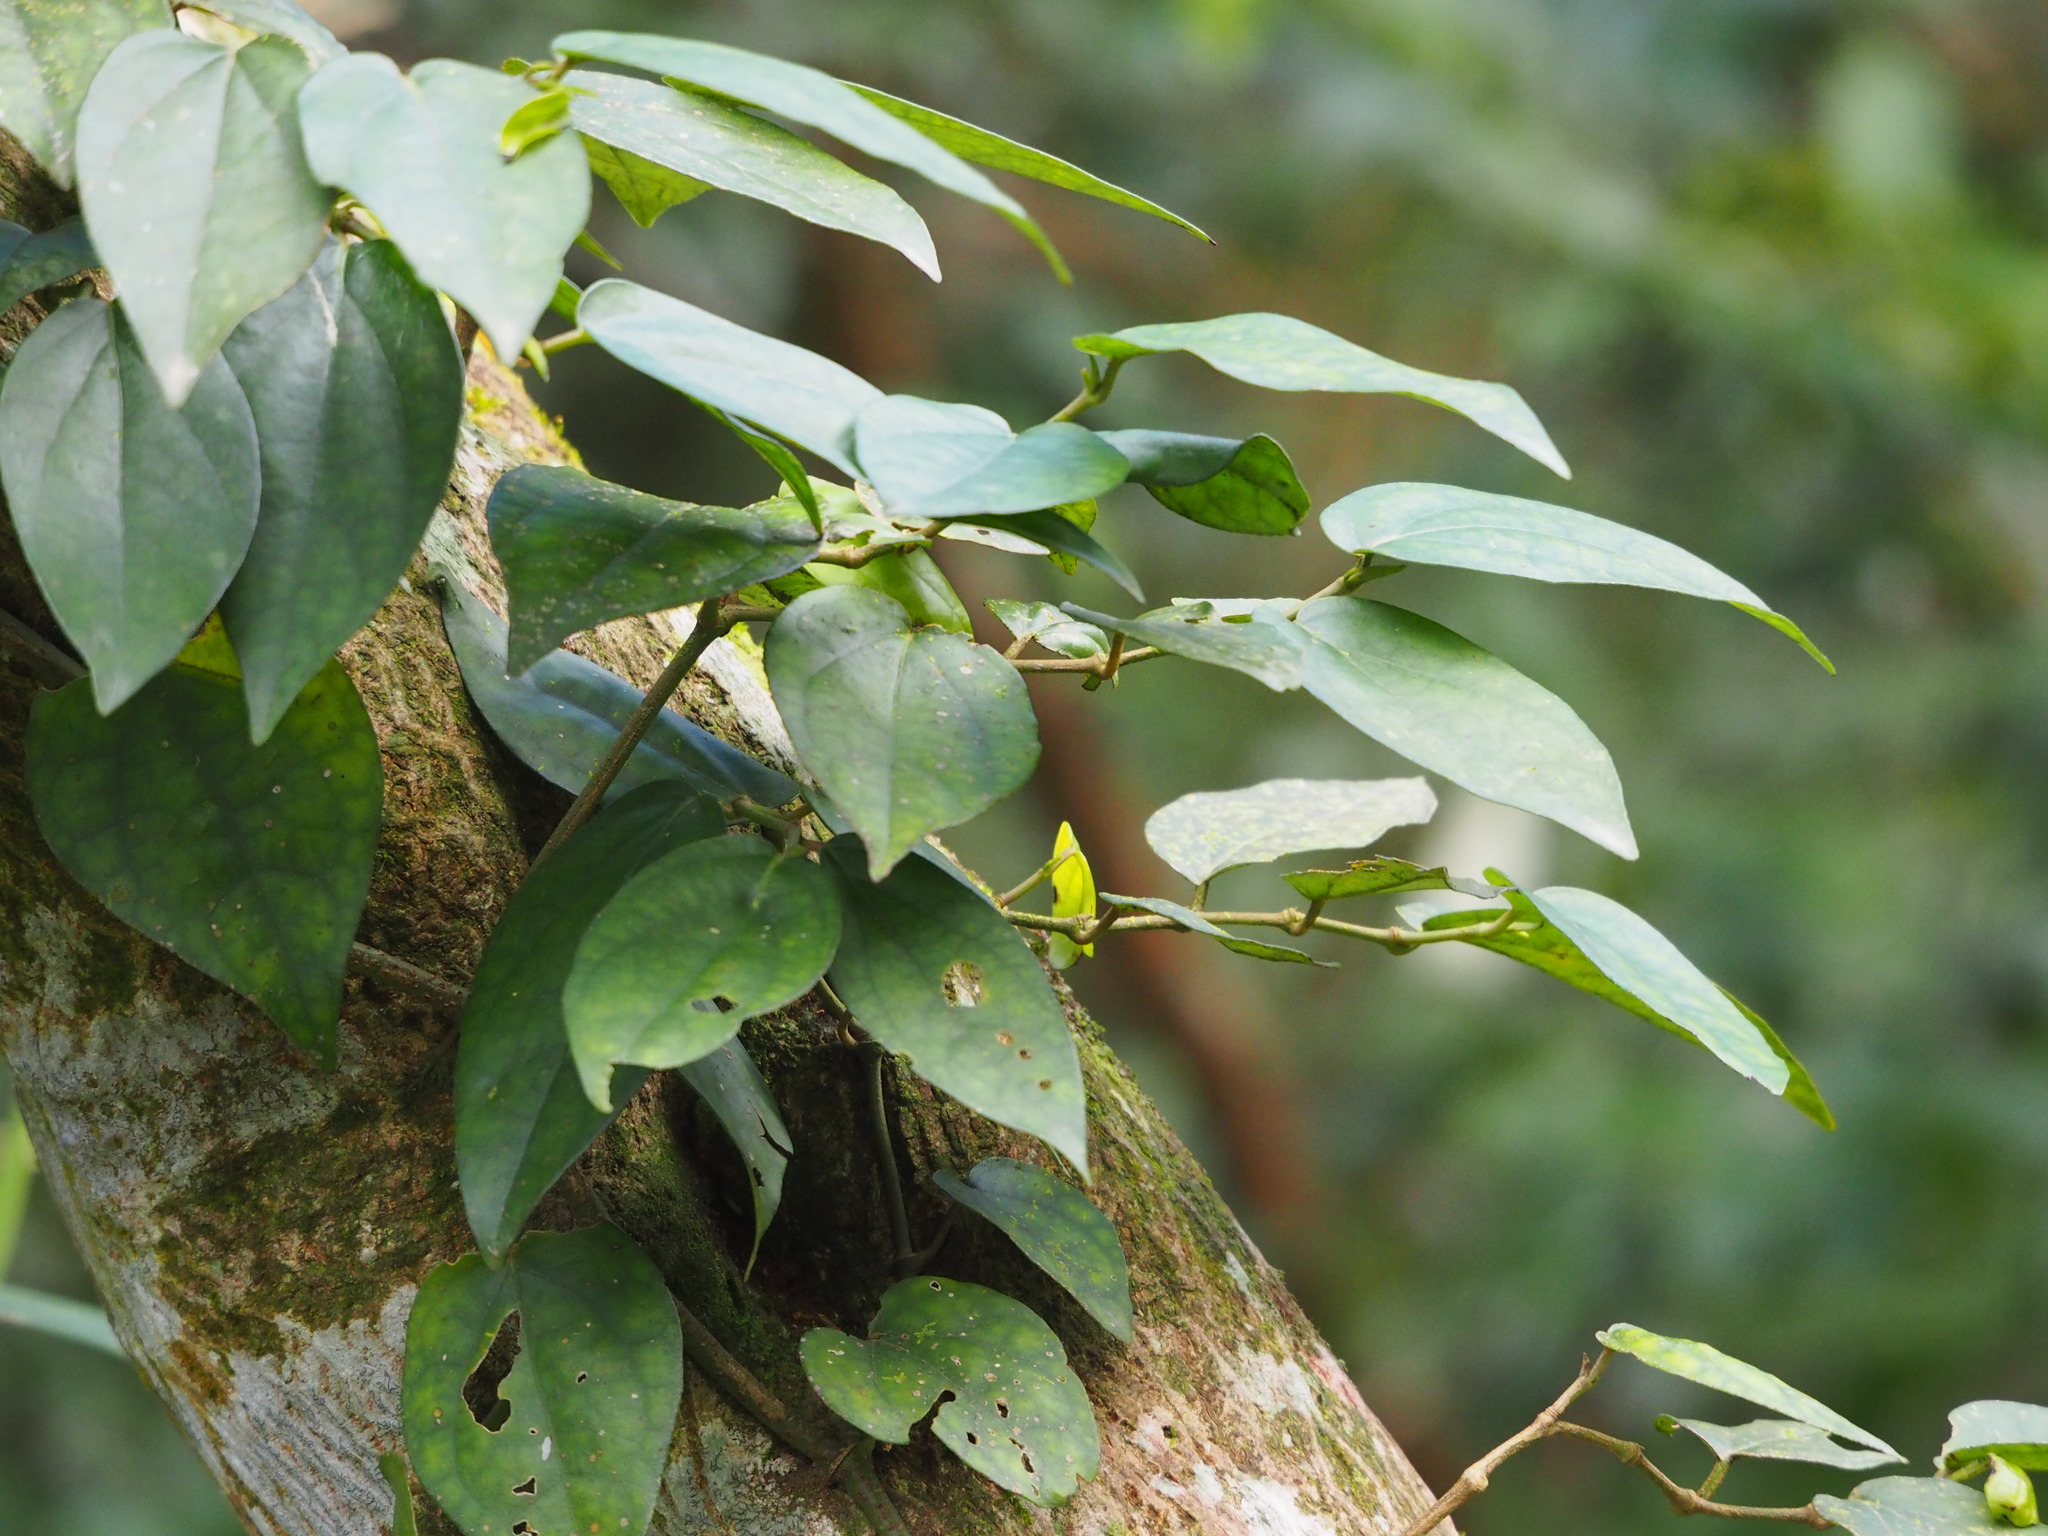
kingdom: Plantae
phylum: Tracheophyta
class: Magnoliopsida
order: Piperales
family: Piperaceae
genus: Piper
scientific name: Piper kadsura
